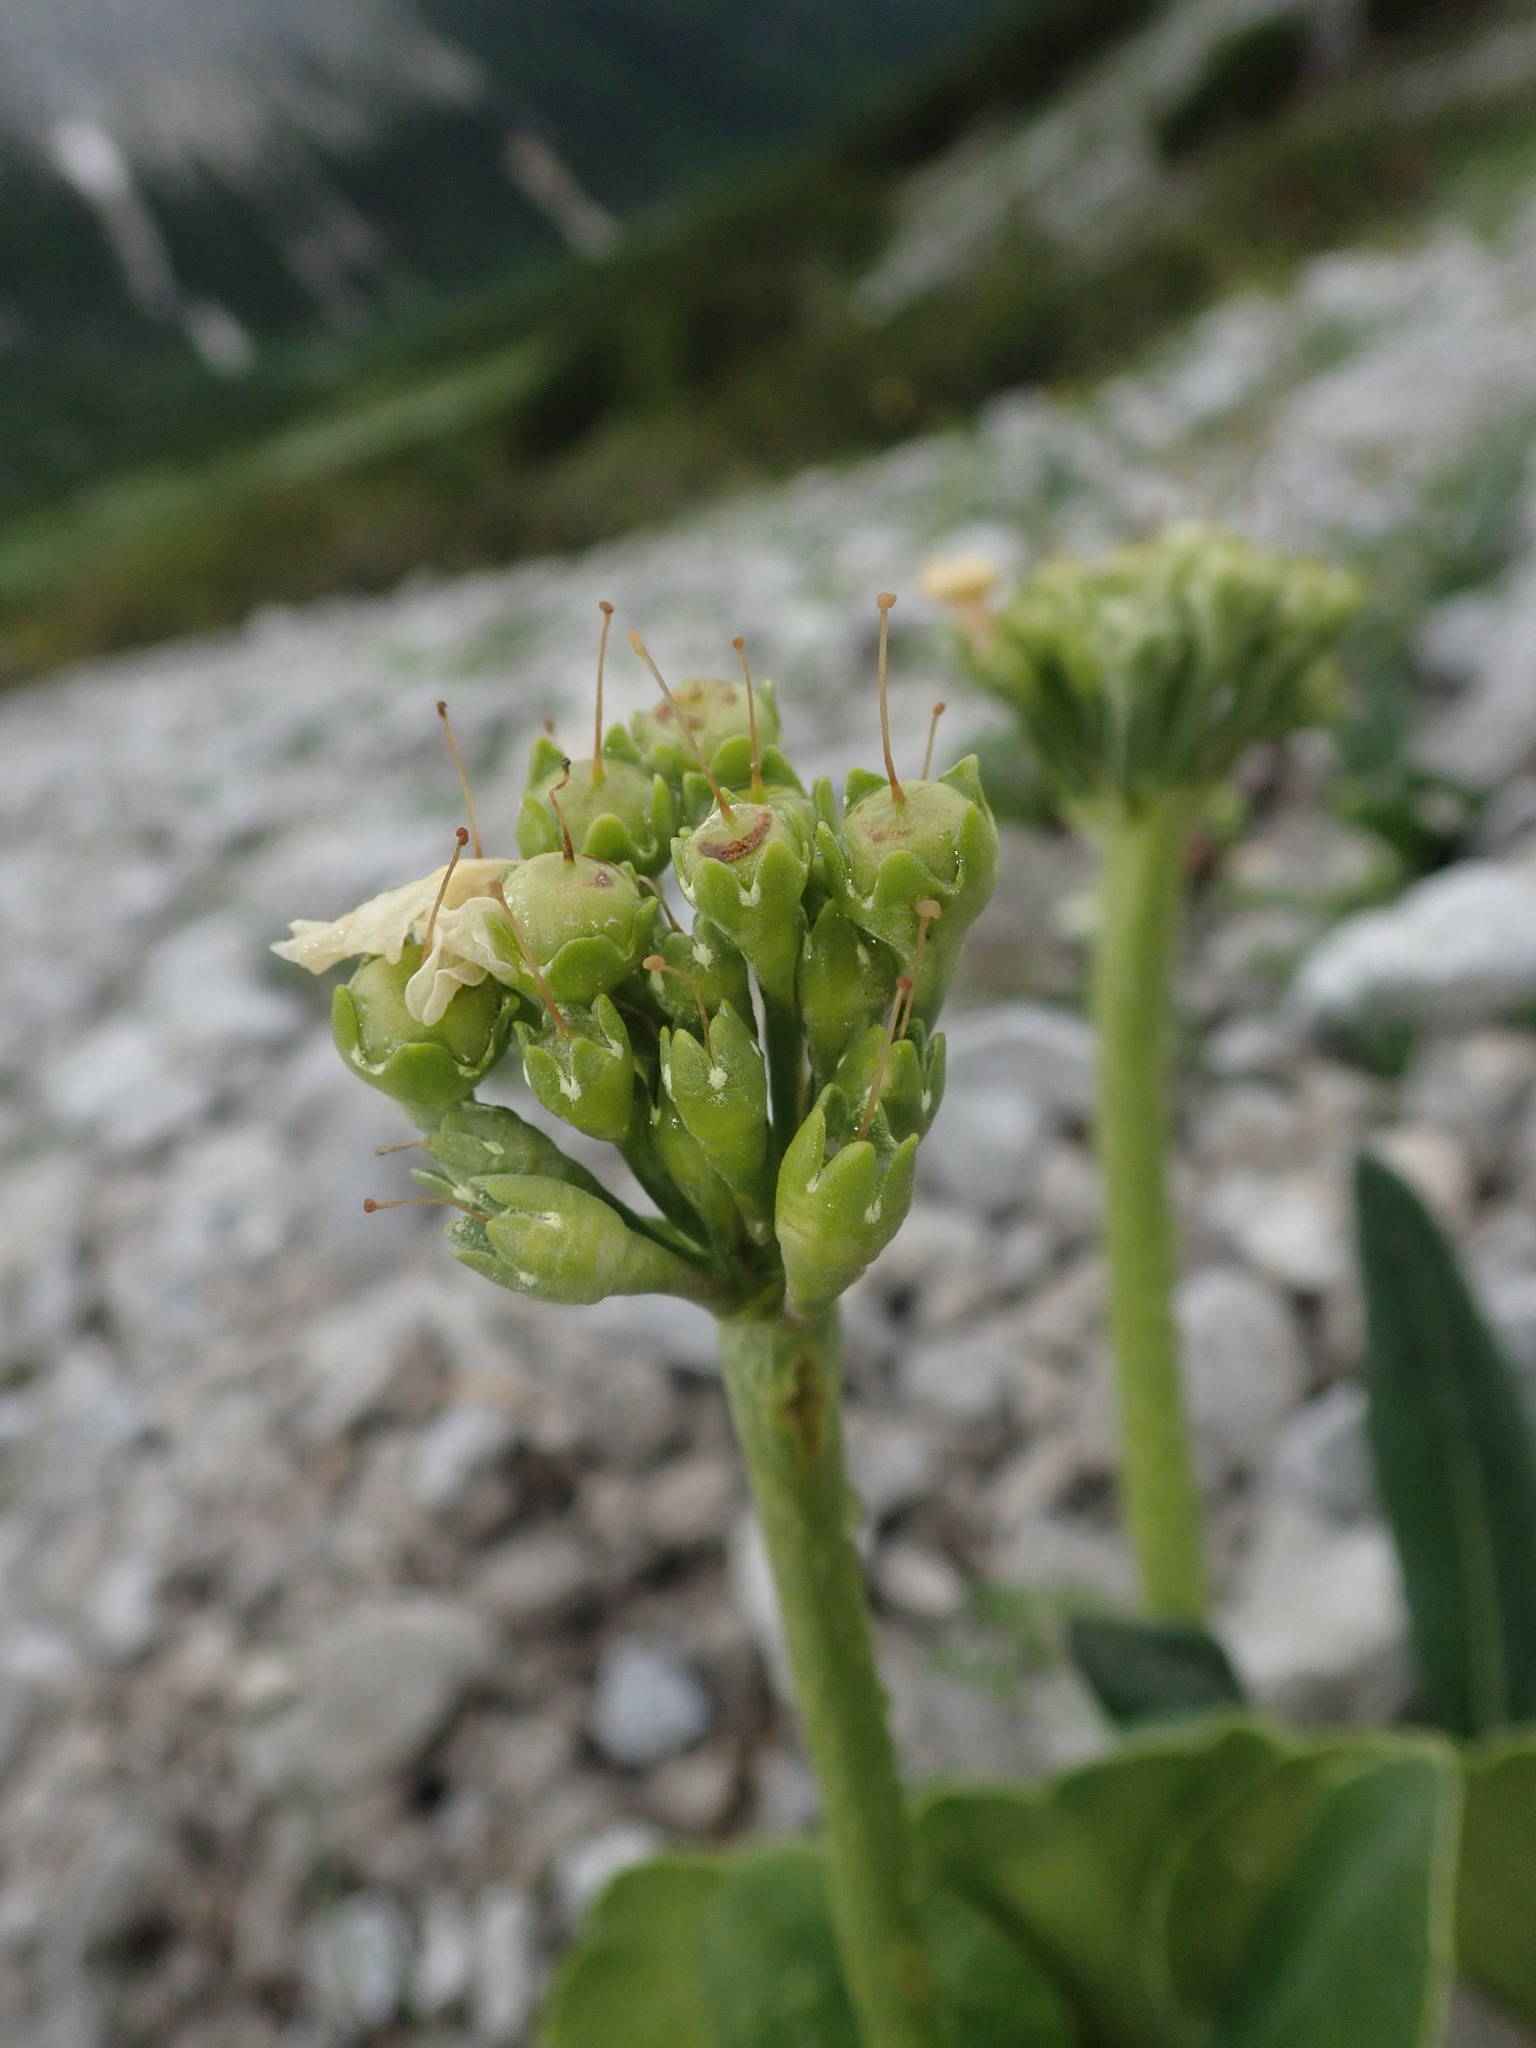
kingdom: Plantae
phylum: Tracheophyta
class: Magnoliopsida
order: Ericales
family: Primulaceae
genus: Primula
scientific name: Primula auricula
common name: Auricula
